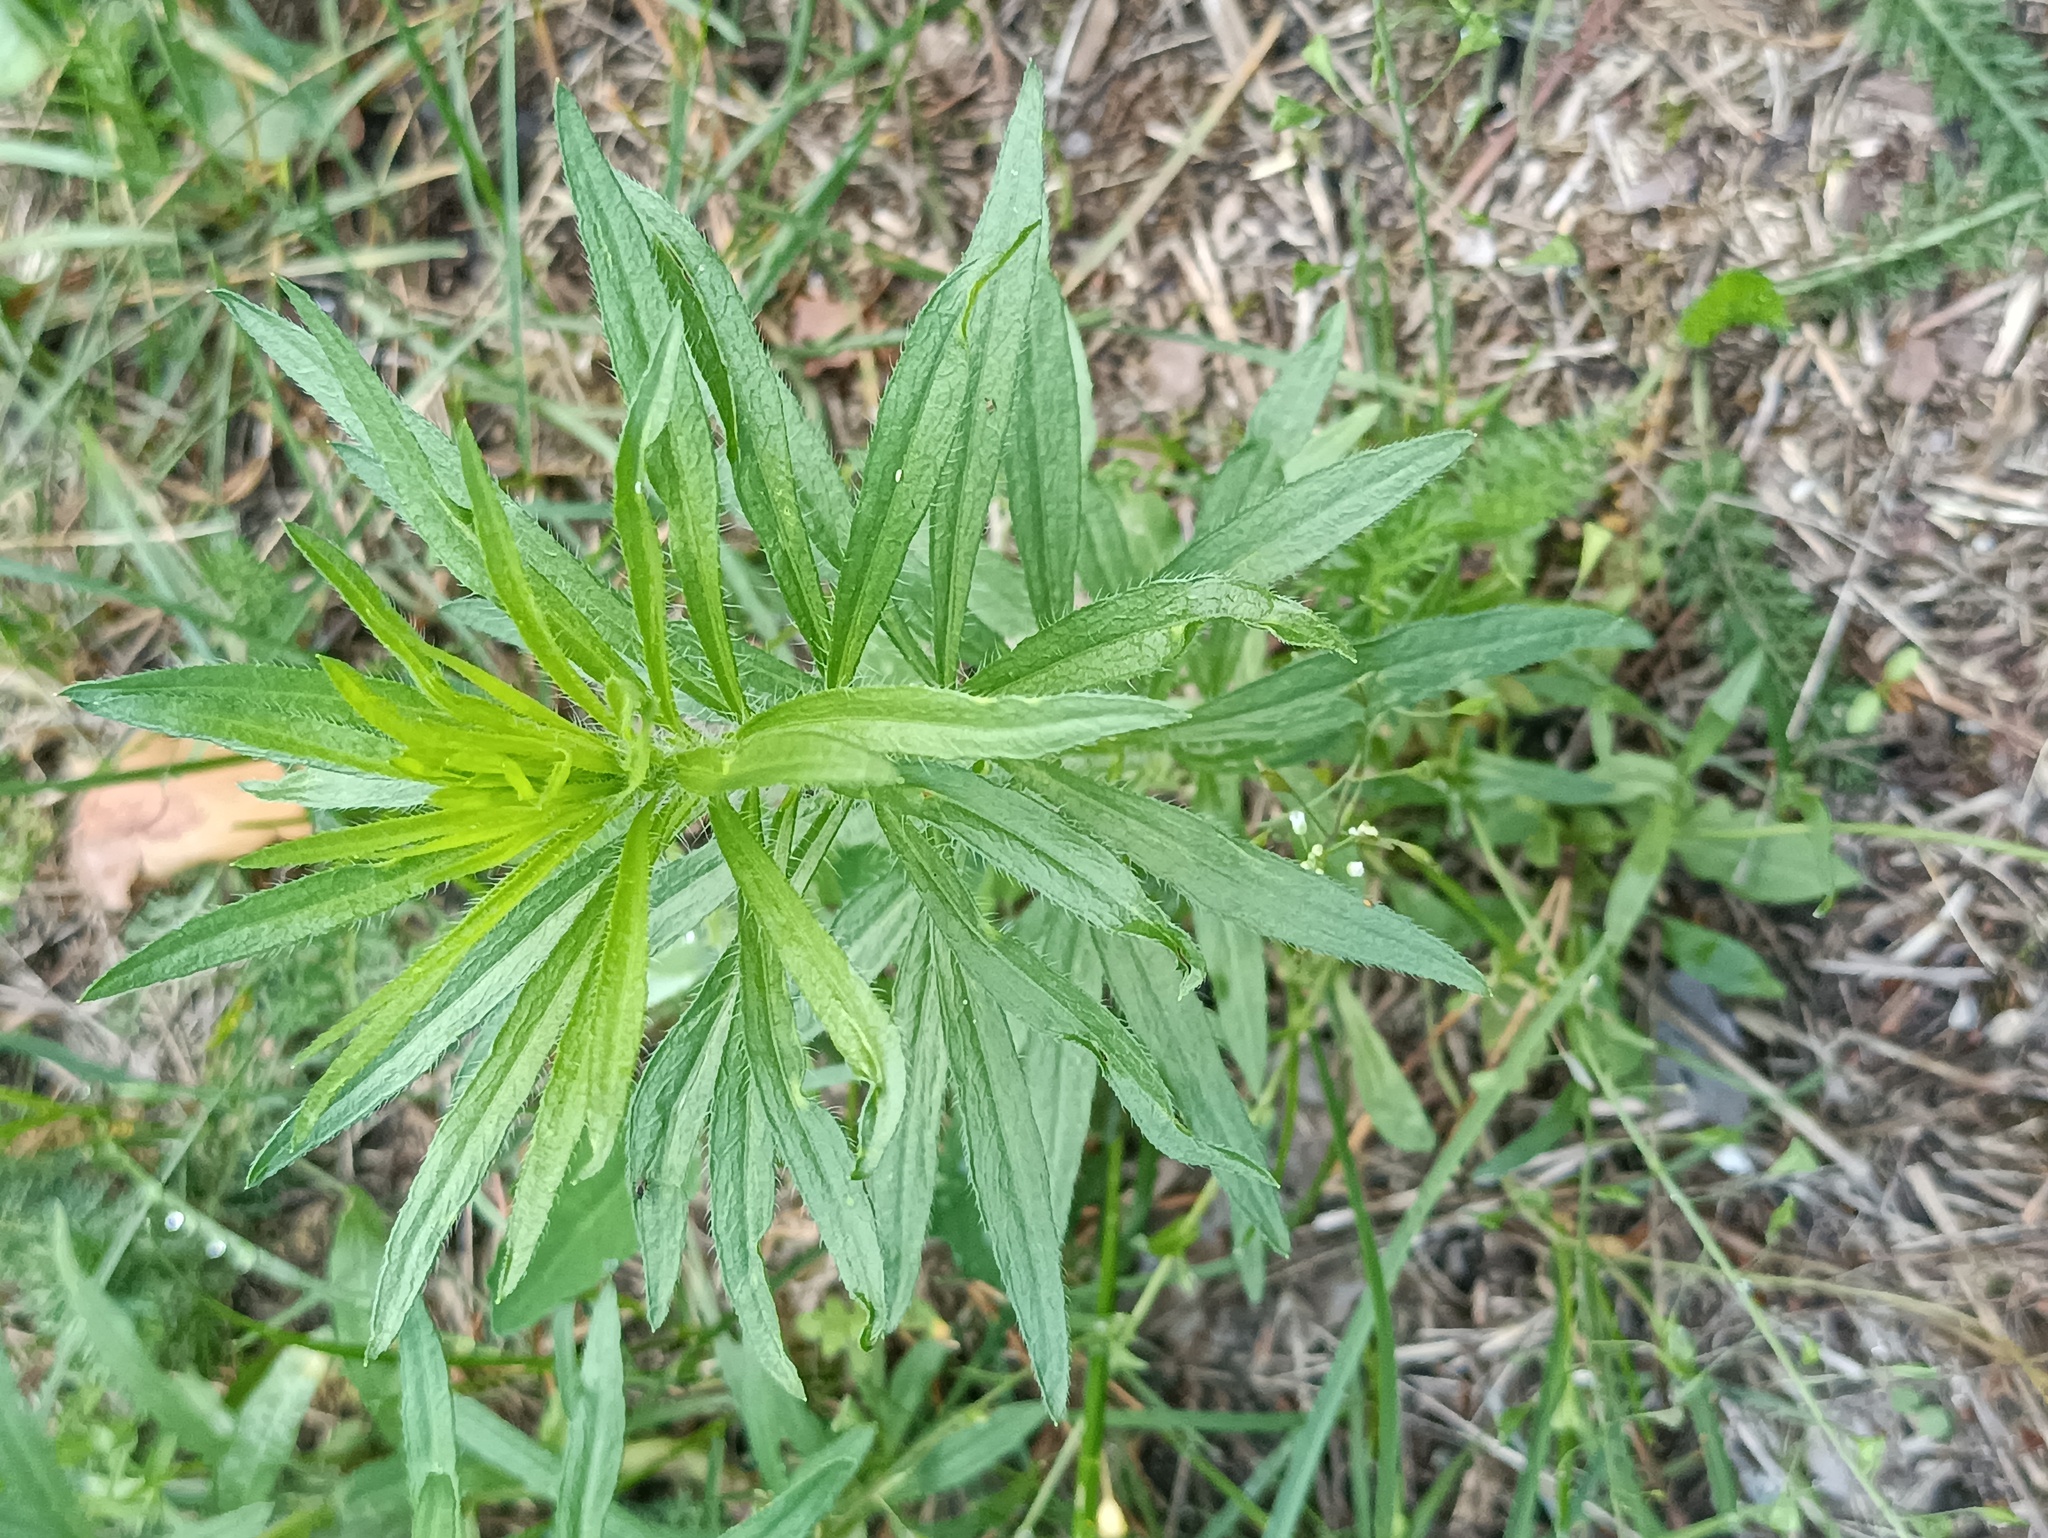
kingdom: Plantae
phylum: Tracheophyta
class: Magnoliopsida
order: Asterales
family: Asteraceae
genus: Erigeron
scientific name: Erigeron canadensis
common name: Canadian fleabane
